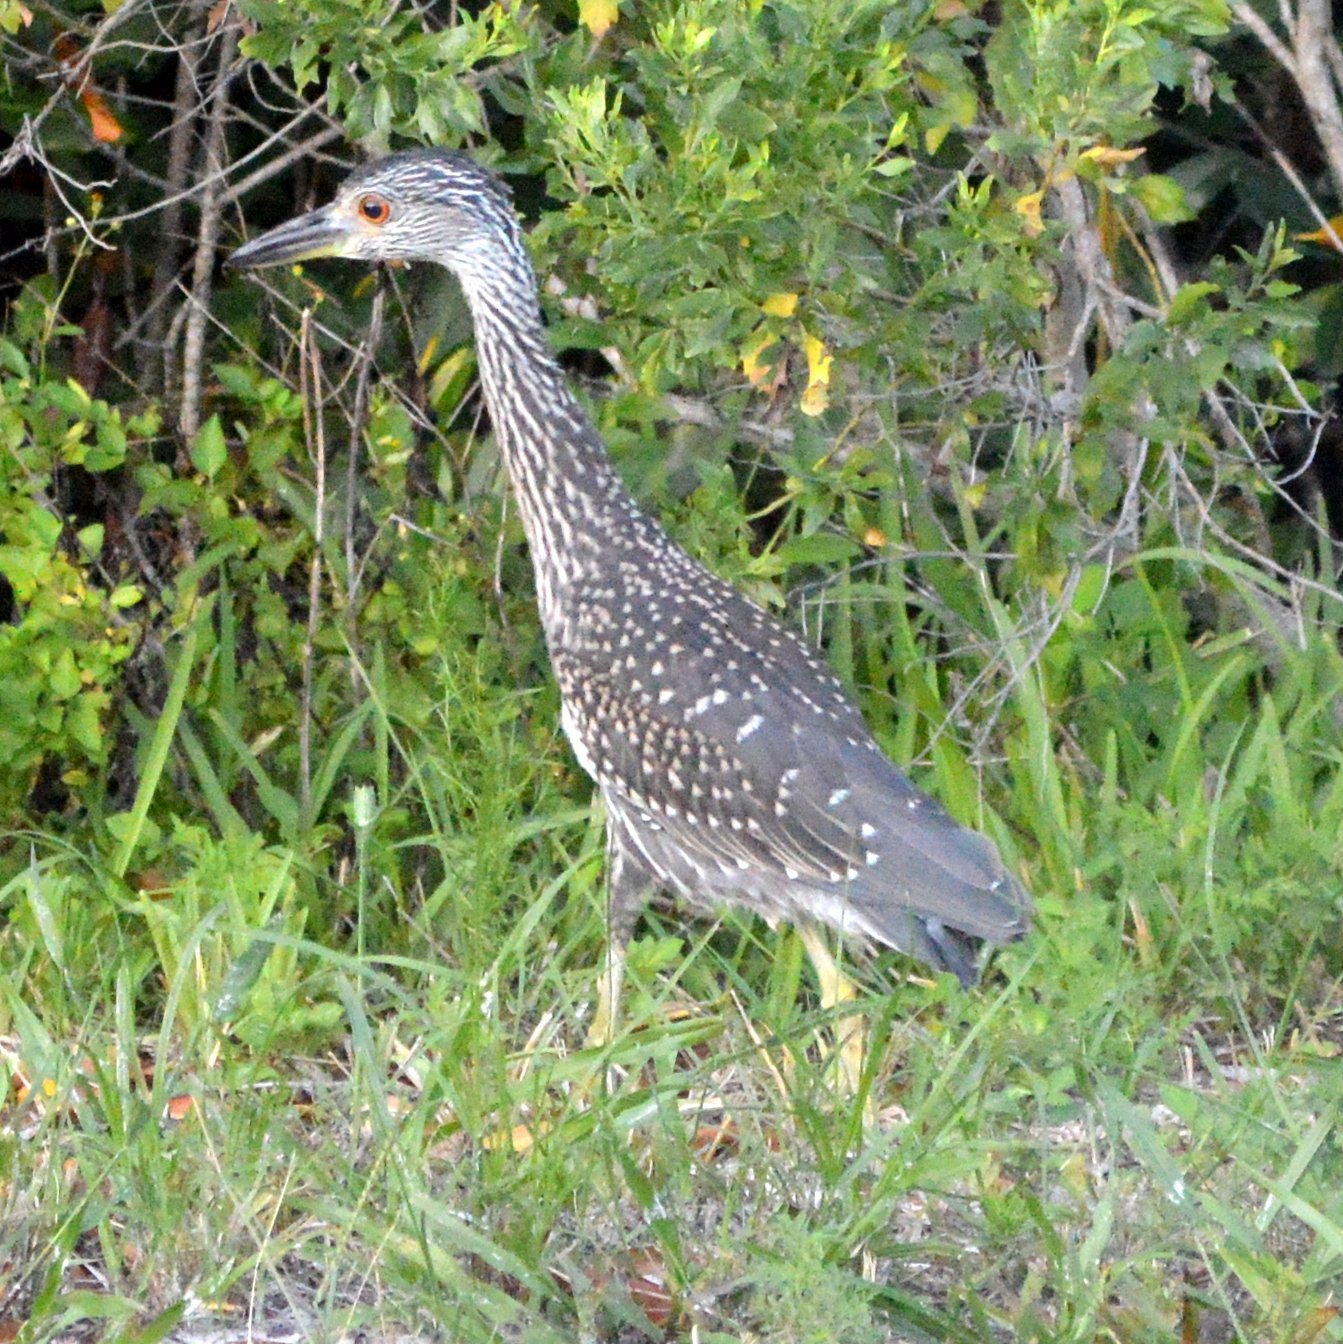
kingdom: Animalia
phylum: Chordata
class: Aves
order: Pelecaniformes
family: Ardeidae
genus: Nyctanassa
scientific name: Nyctanassa violacea
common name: Yellow-crowned night heron
